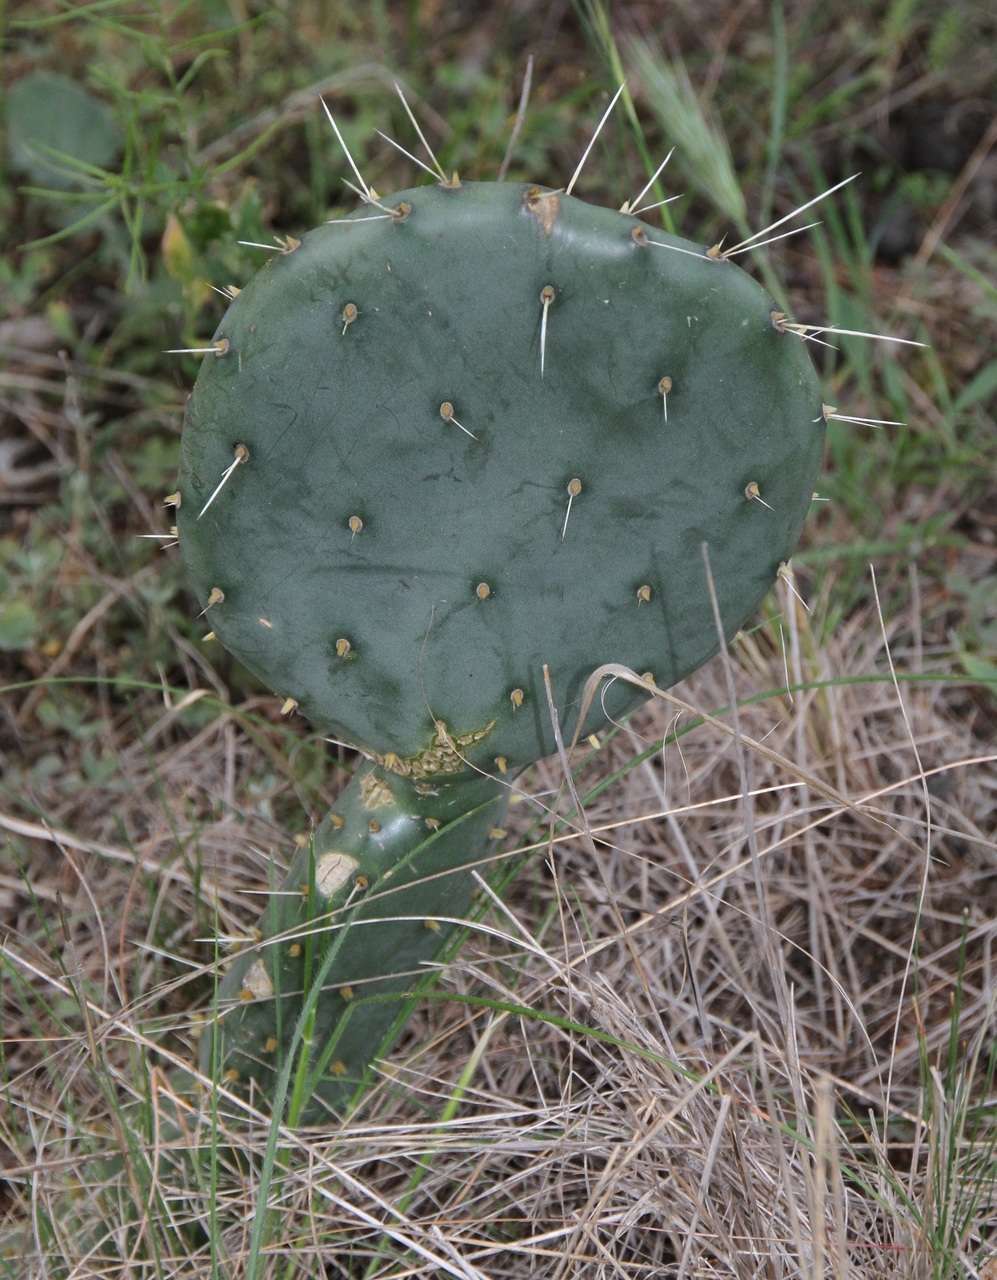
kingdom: Plantae
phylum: Tracheophyta
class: Magnoliopsida
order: Caryophyllales
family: Cactaceae
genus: Opuntia
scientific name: Opuntia robusta
